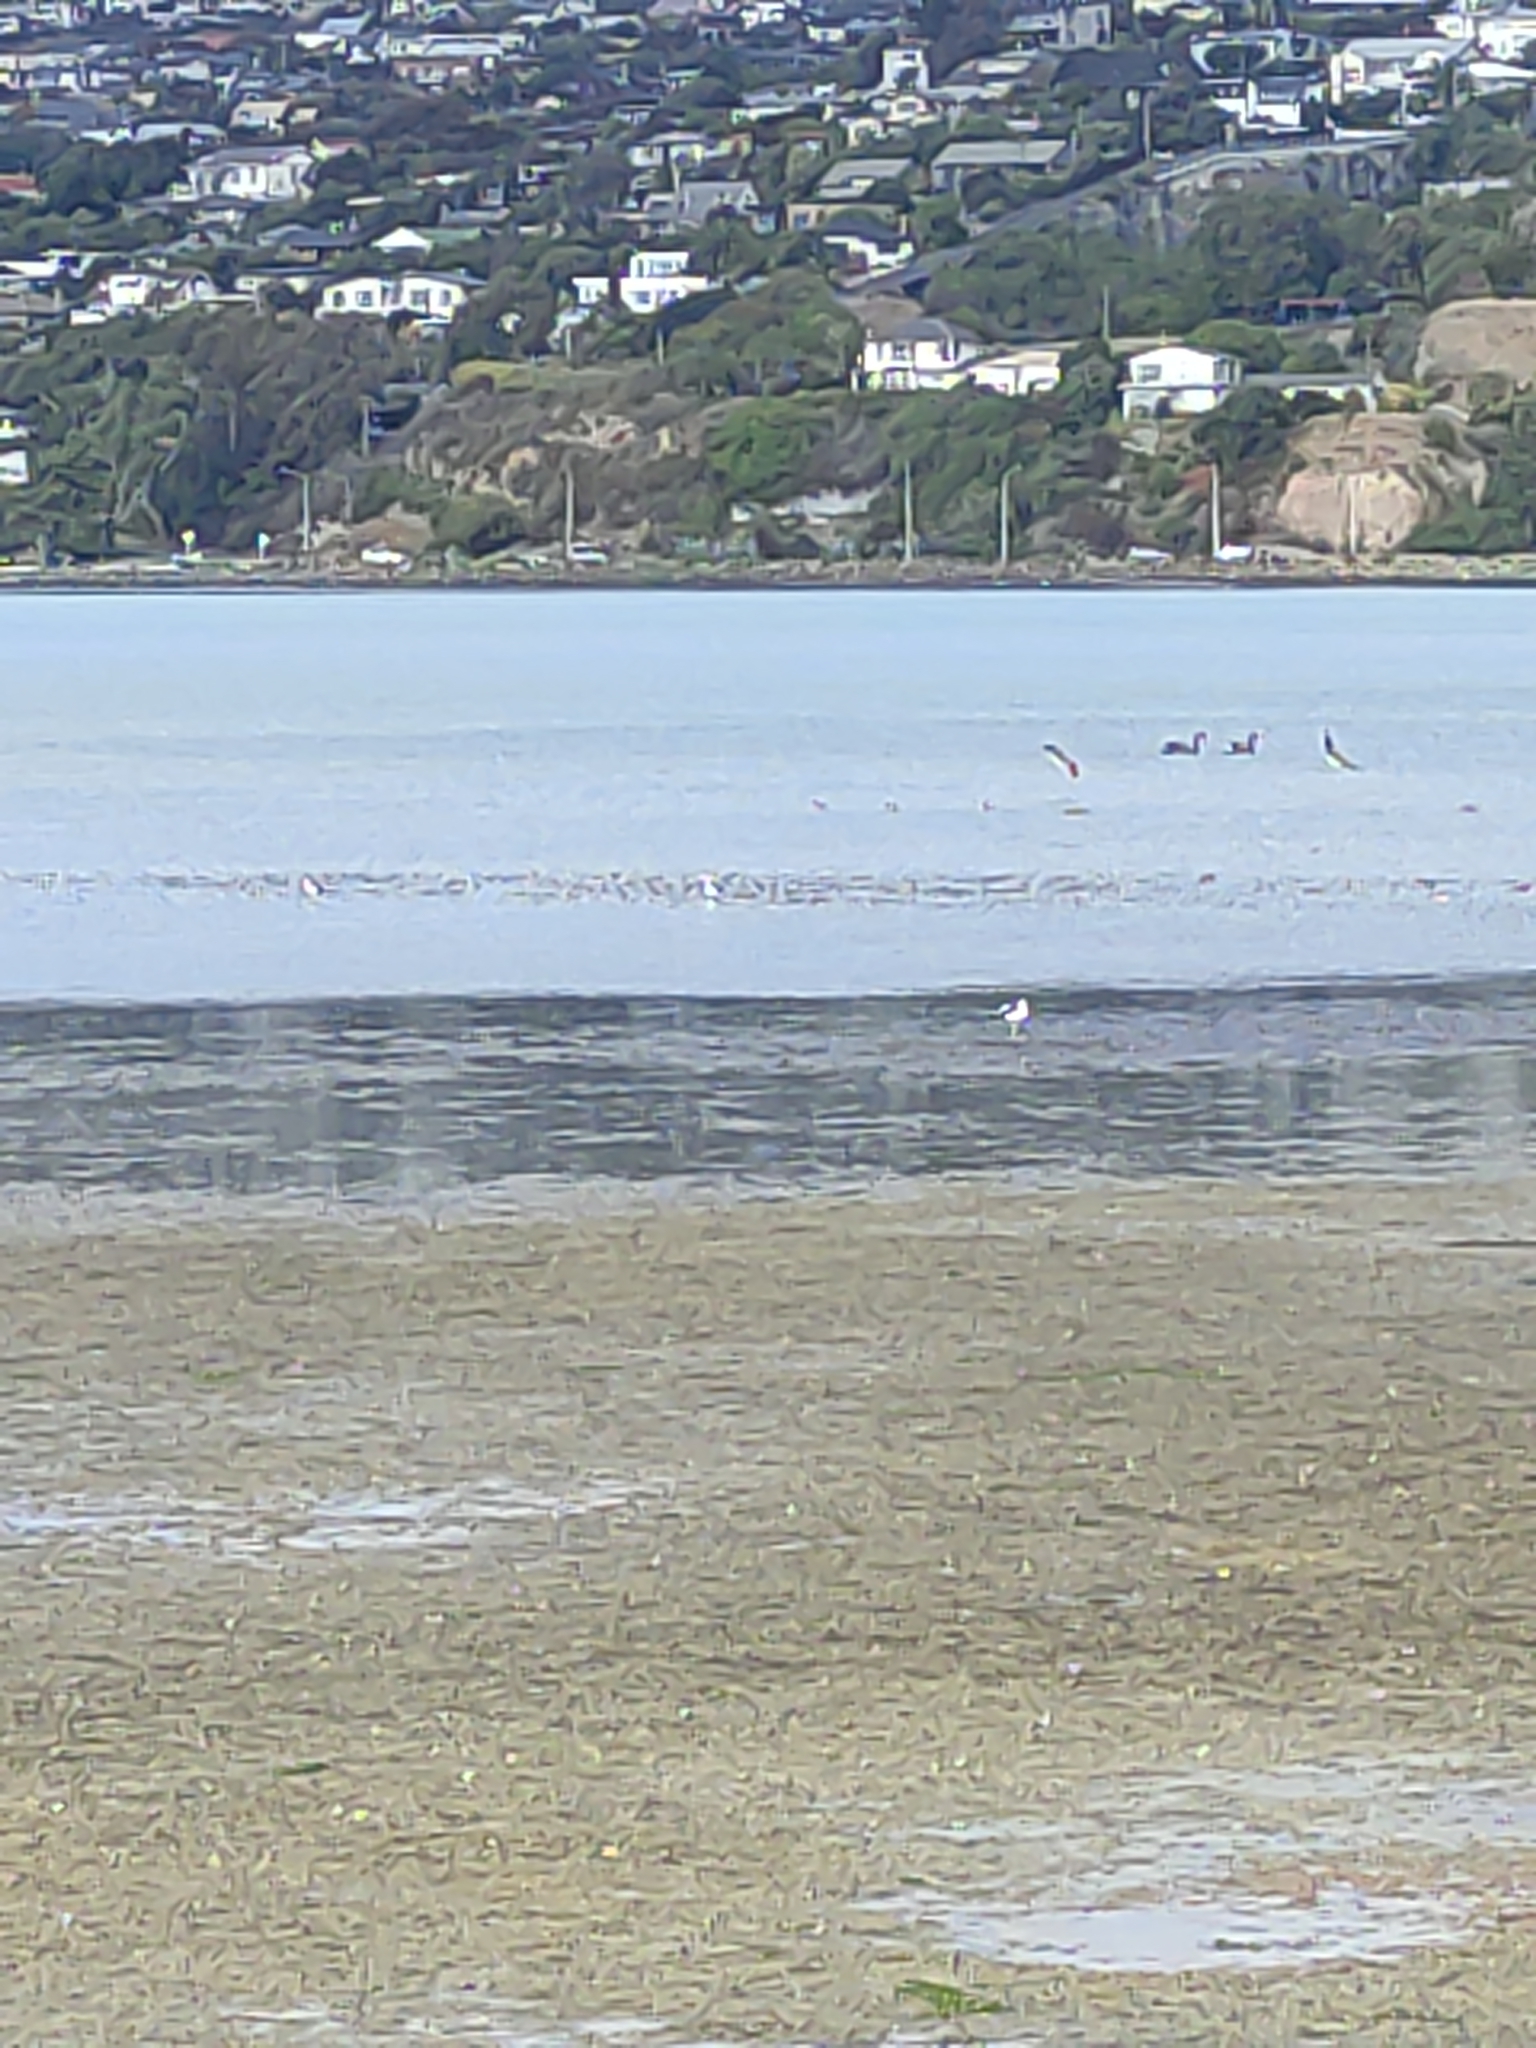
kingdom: Animalia
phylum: Chordata
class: Aves
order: Anseriformes
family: Anatidae
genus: Cygnus
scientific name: Cygnus atratus
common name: Black swan
